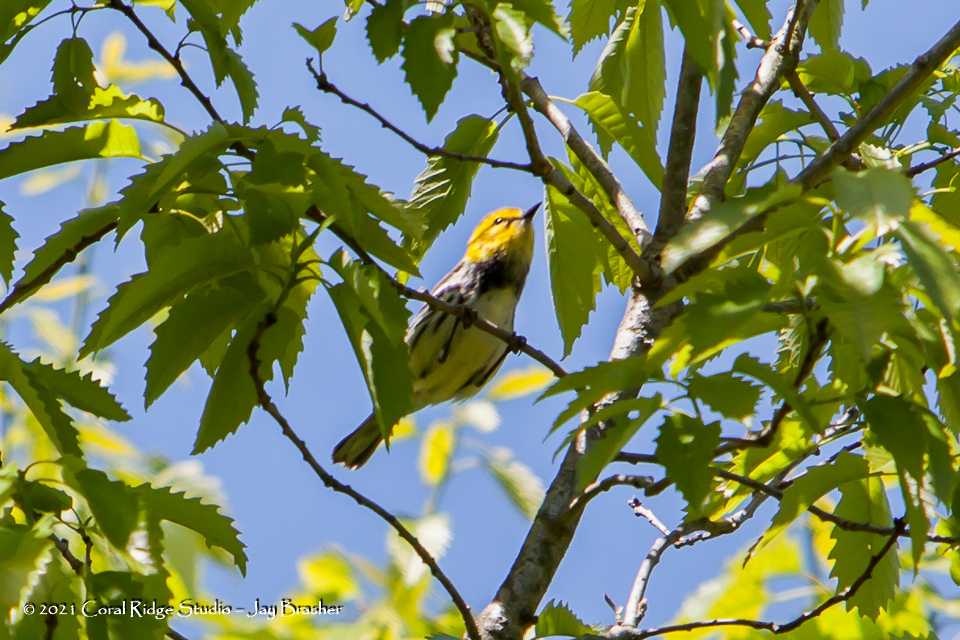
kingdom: Animalia
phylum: Chordata
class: Aves
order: Passeriformes
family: Parulidae
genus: Setophaga
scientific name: Setophaga virens
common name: Black-throated green warbler
